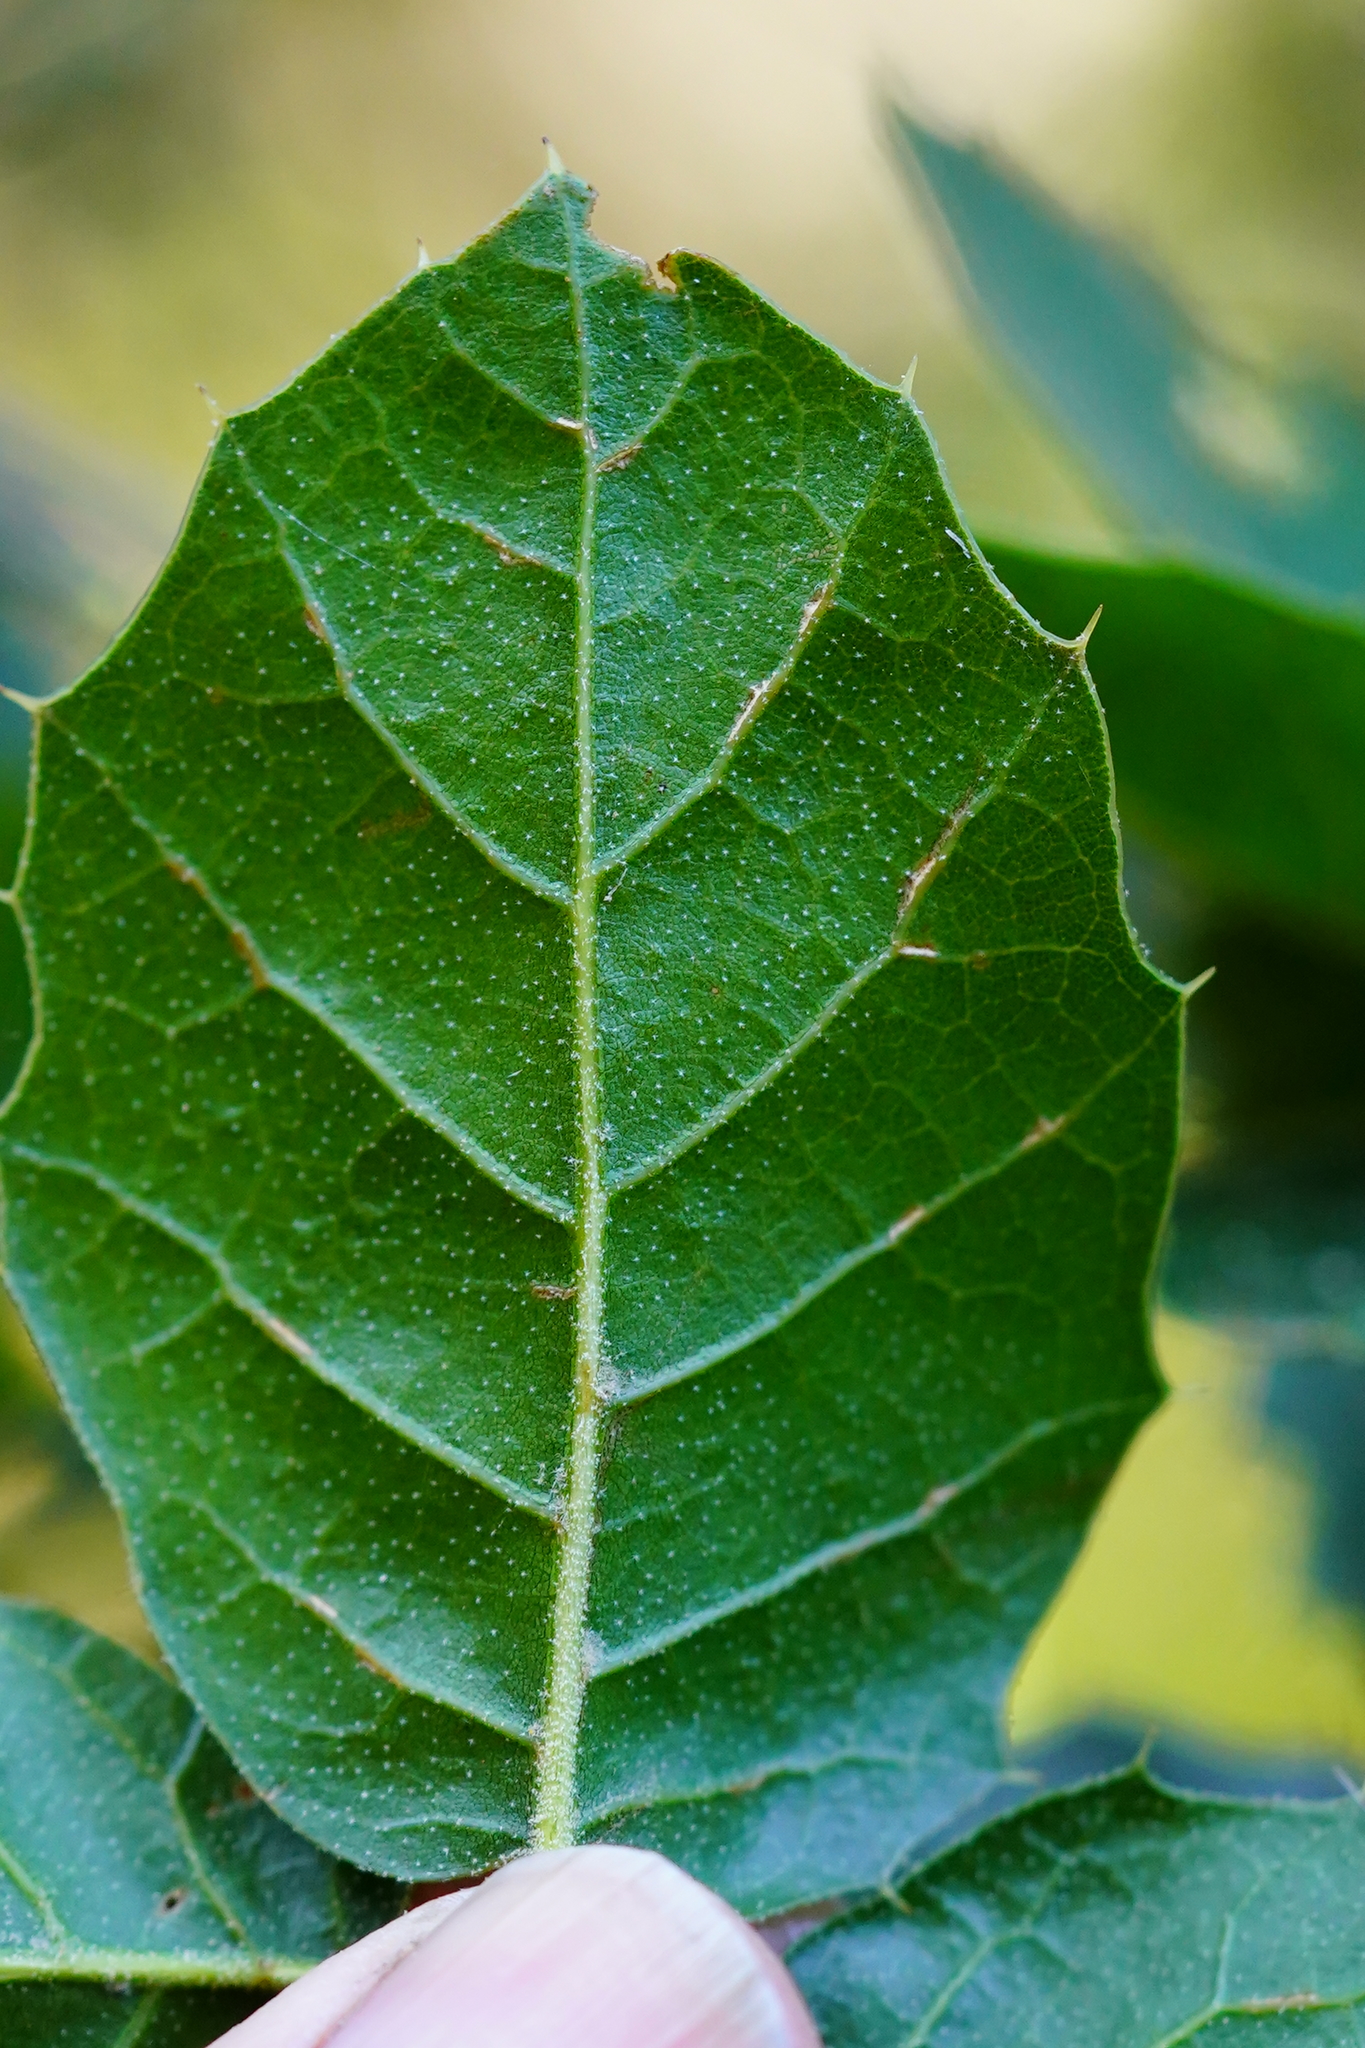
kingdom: Plantae
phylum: Tracheophyta
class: Magnoliopsida
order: Fagales
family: Fagaceae
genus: Quercus
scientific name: Quercus agrifolia
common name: California live oak
